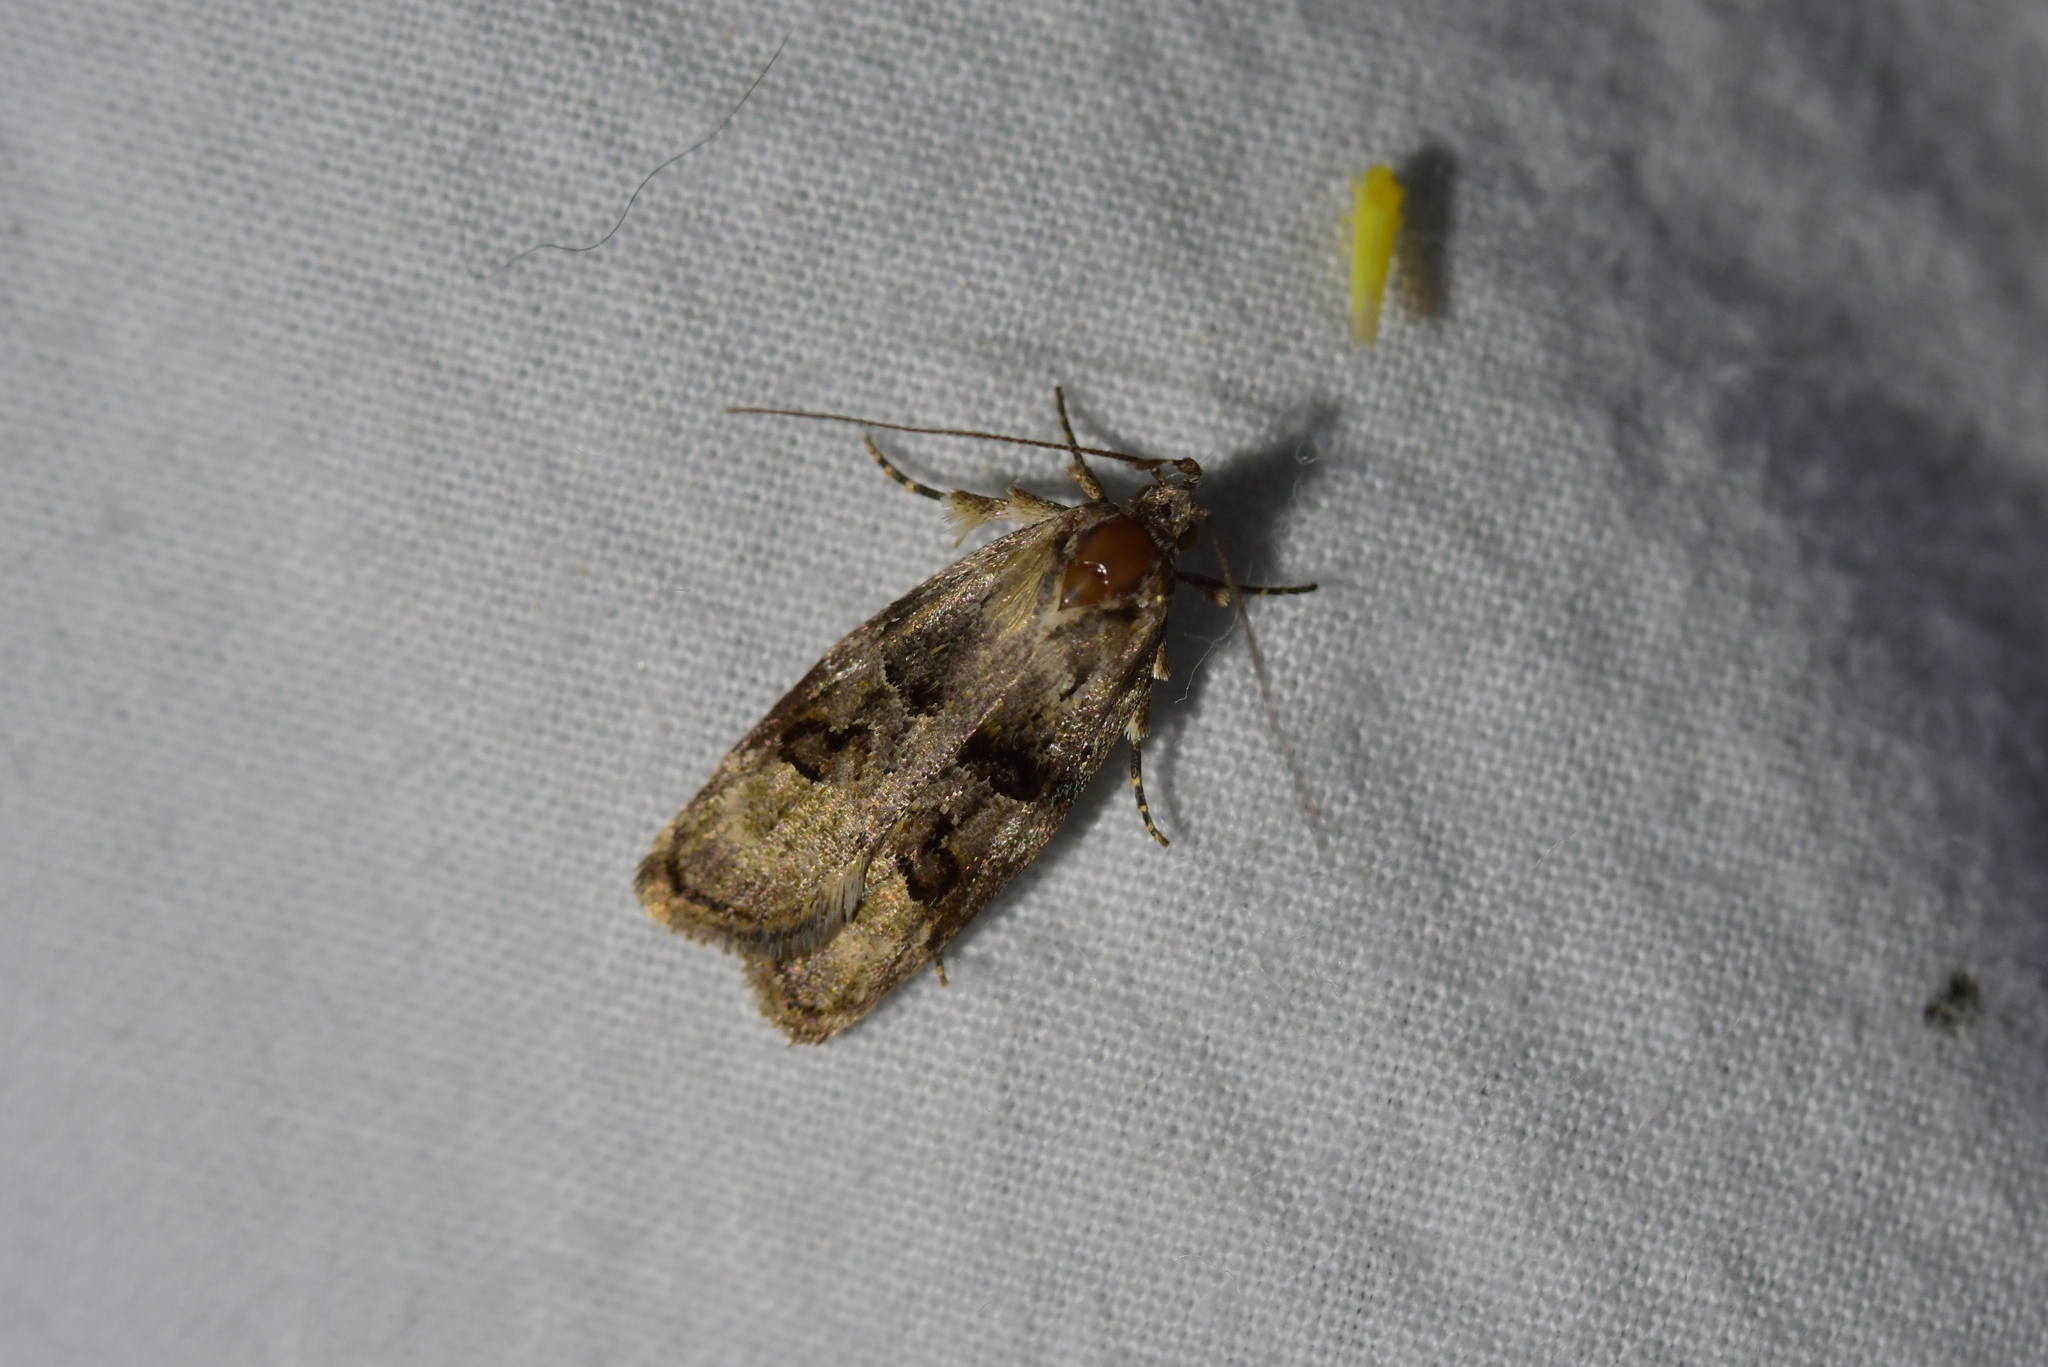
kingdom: Animalia
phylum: Arthropoda
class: Insecta
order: Lepidoptera
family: Oecophoridae
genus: Izatha
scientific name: Izatha metadelta
